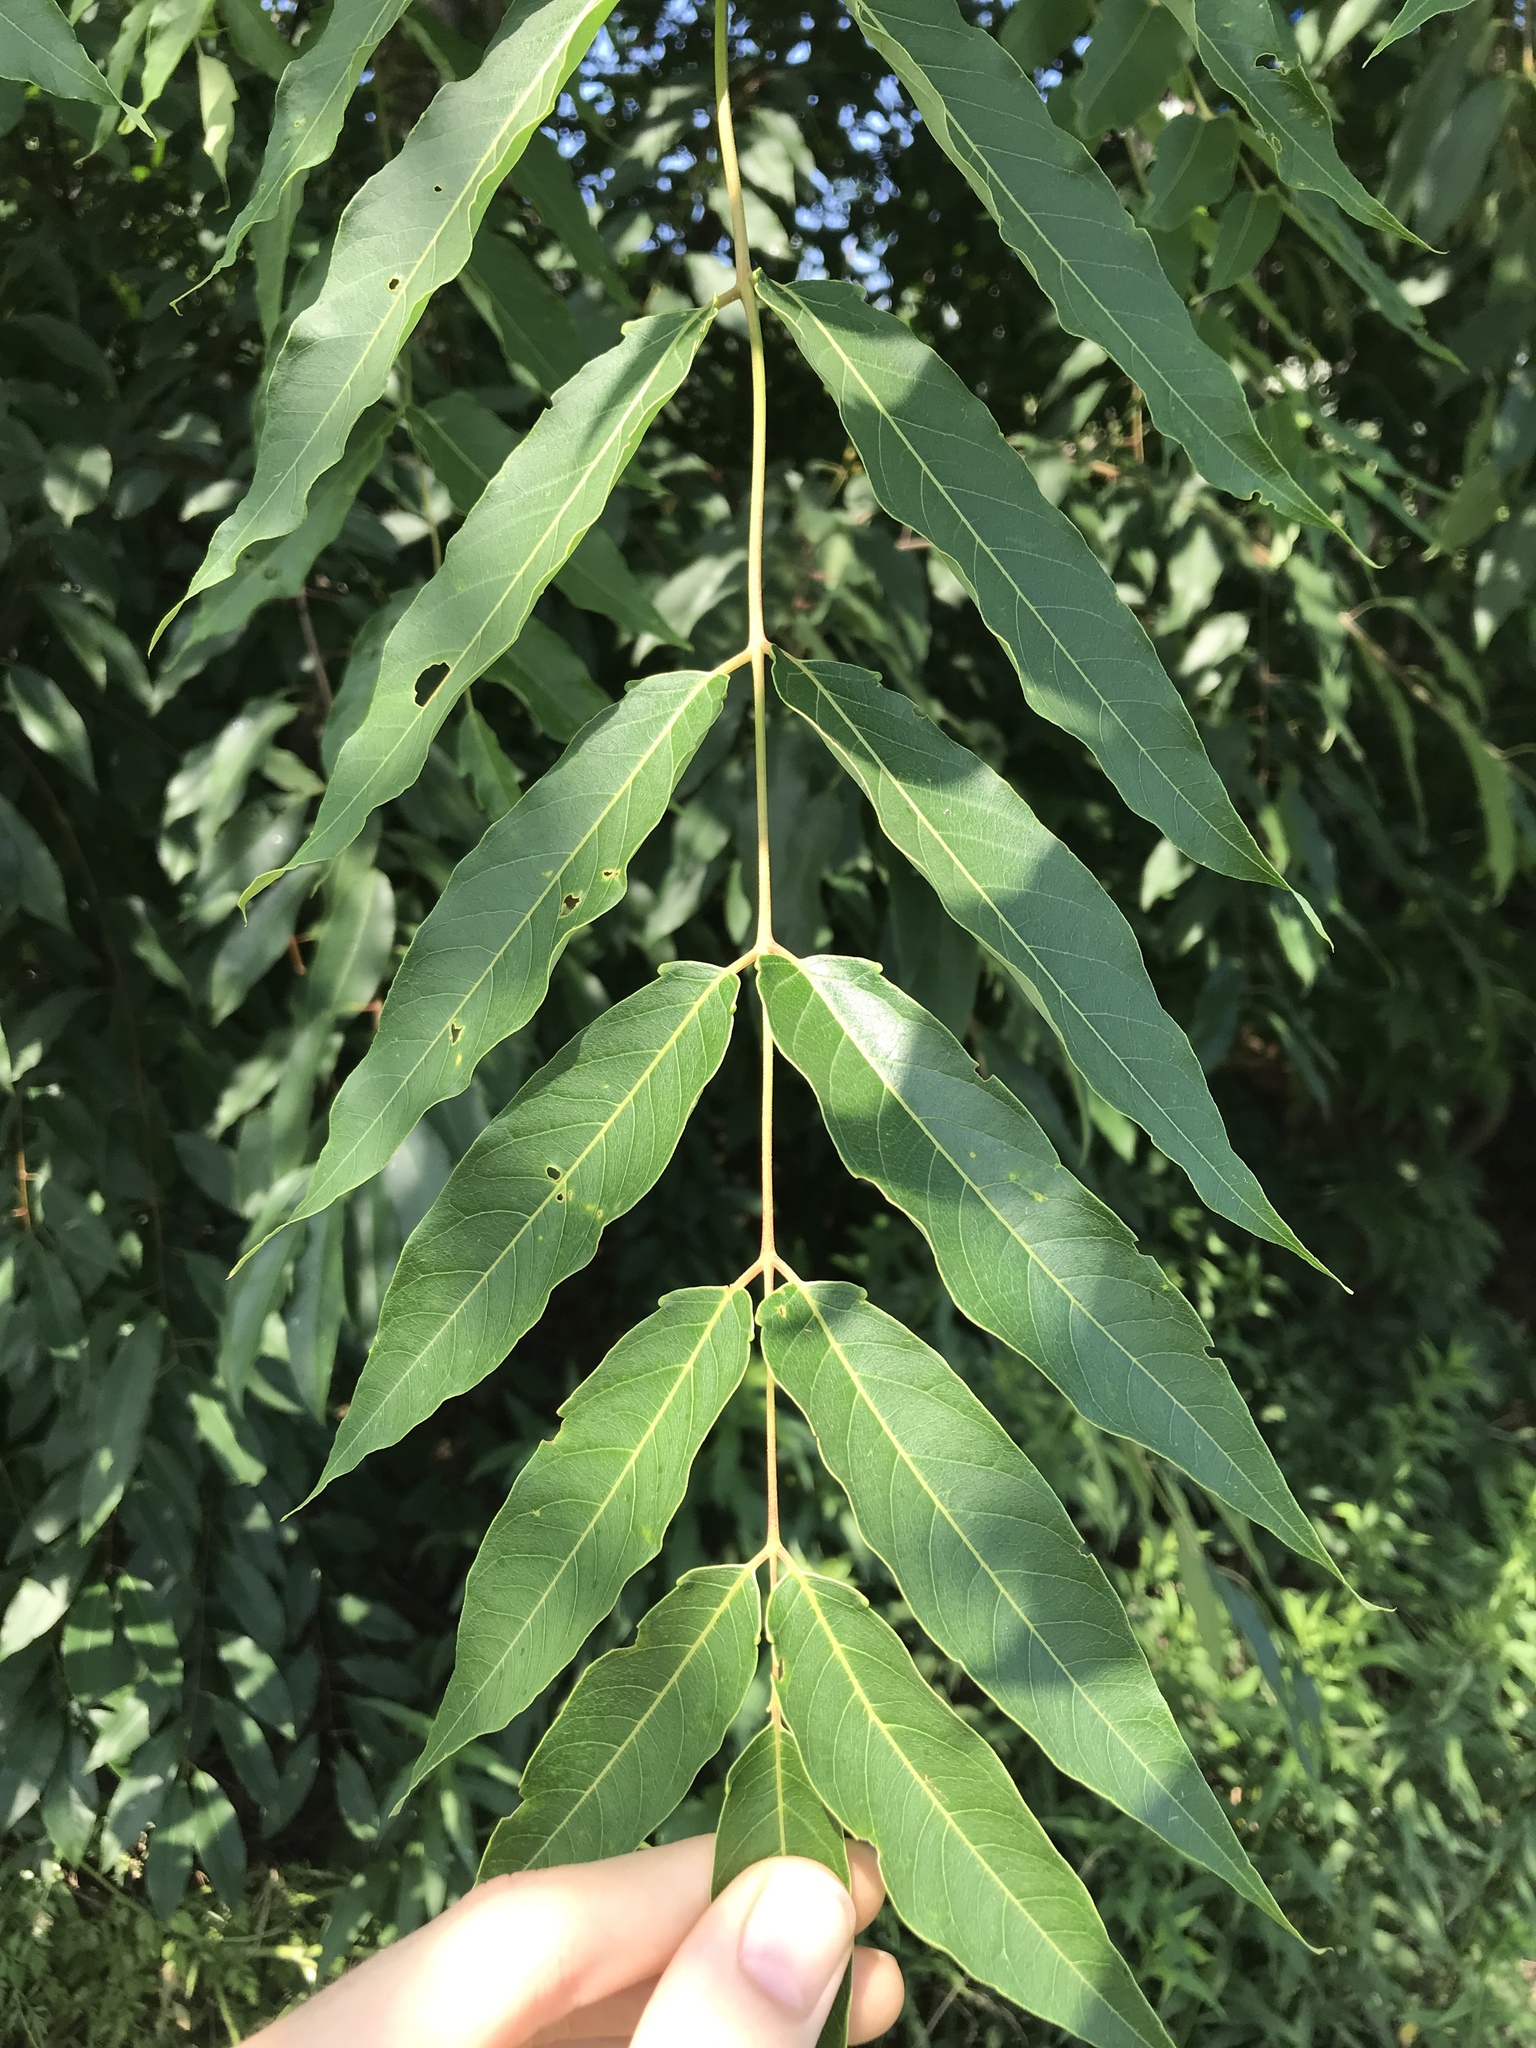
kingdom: Plantae
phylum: Tracheophyta
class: Magnoliopsida
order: Sapindales
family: Simaroubaceae
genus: Ailanthus
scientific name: Ailanthus altissima
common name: Tree-of-heaven
